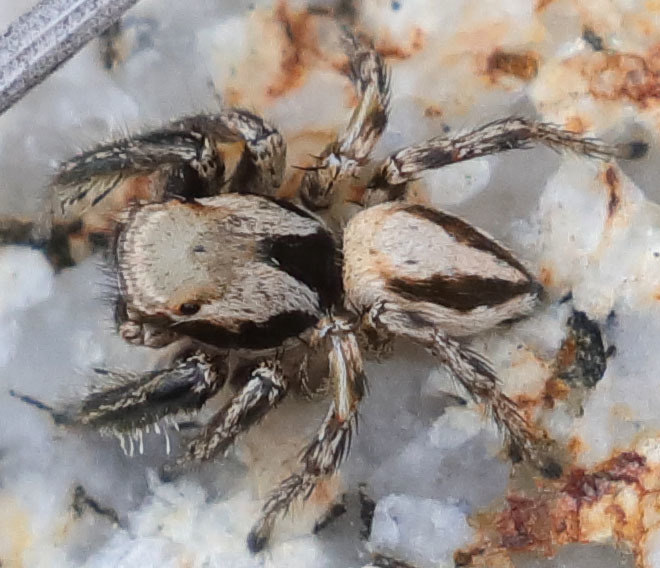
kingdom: Animalia
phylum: Arthropoda
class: Arachnida
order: Araneae
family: Salticidae
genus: Habronattus
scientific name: Habronattus californicus
